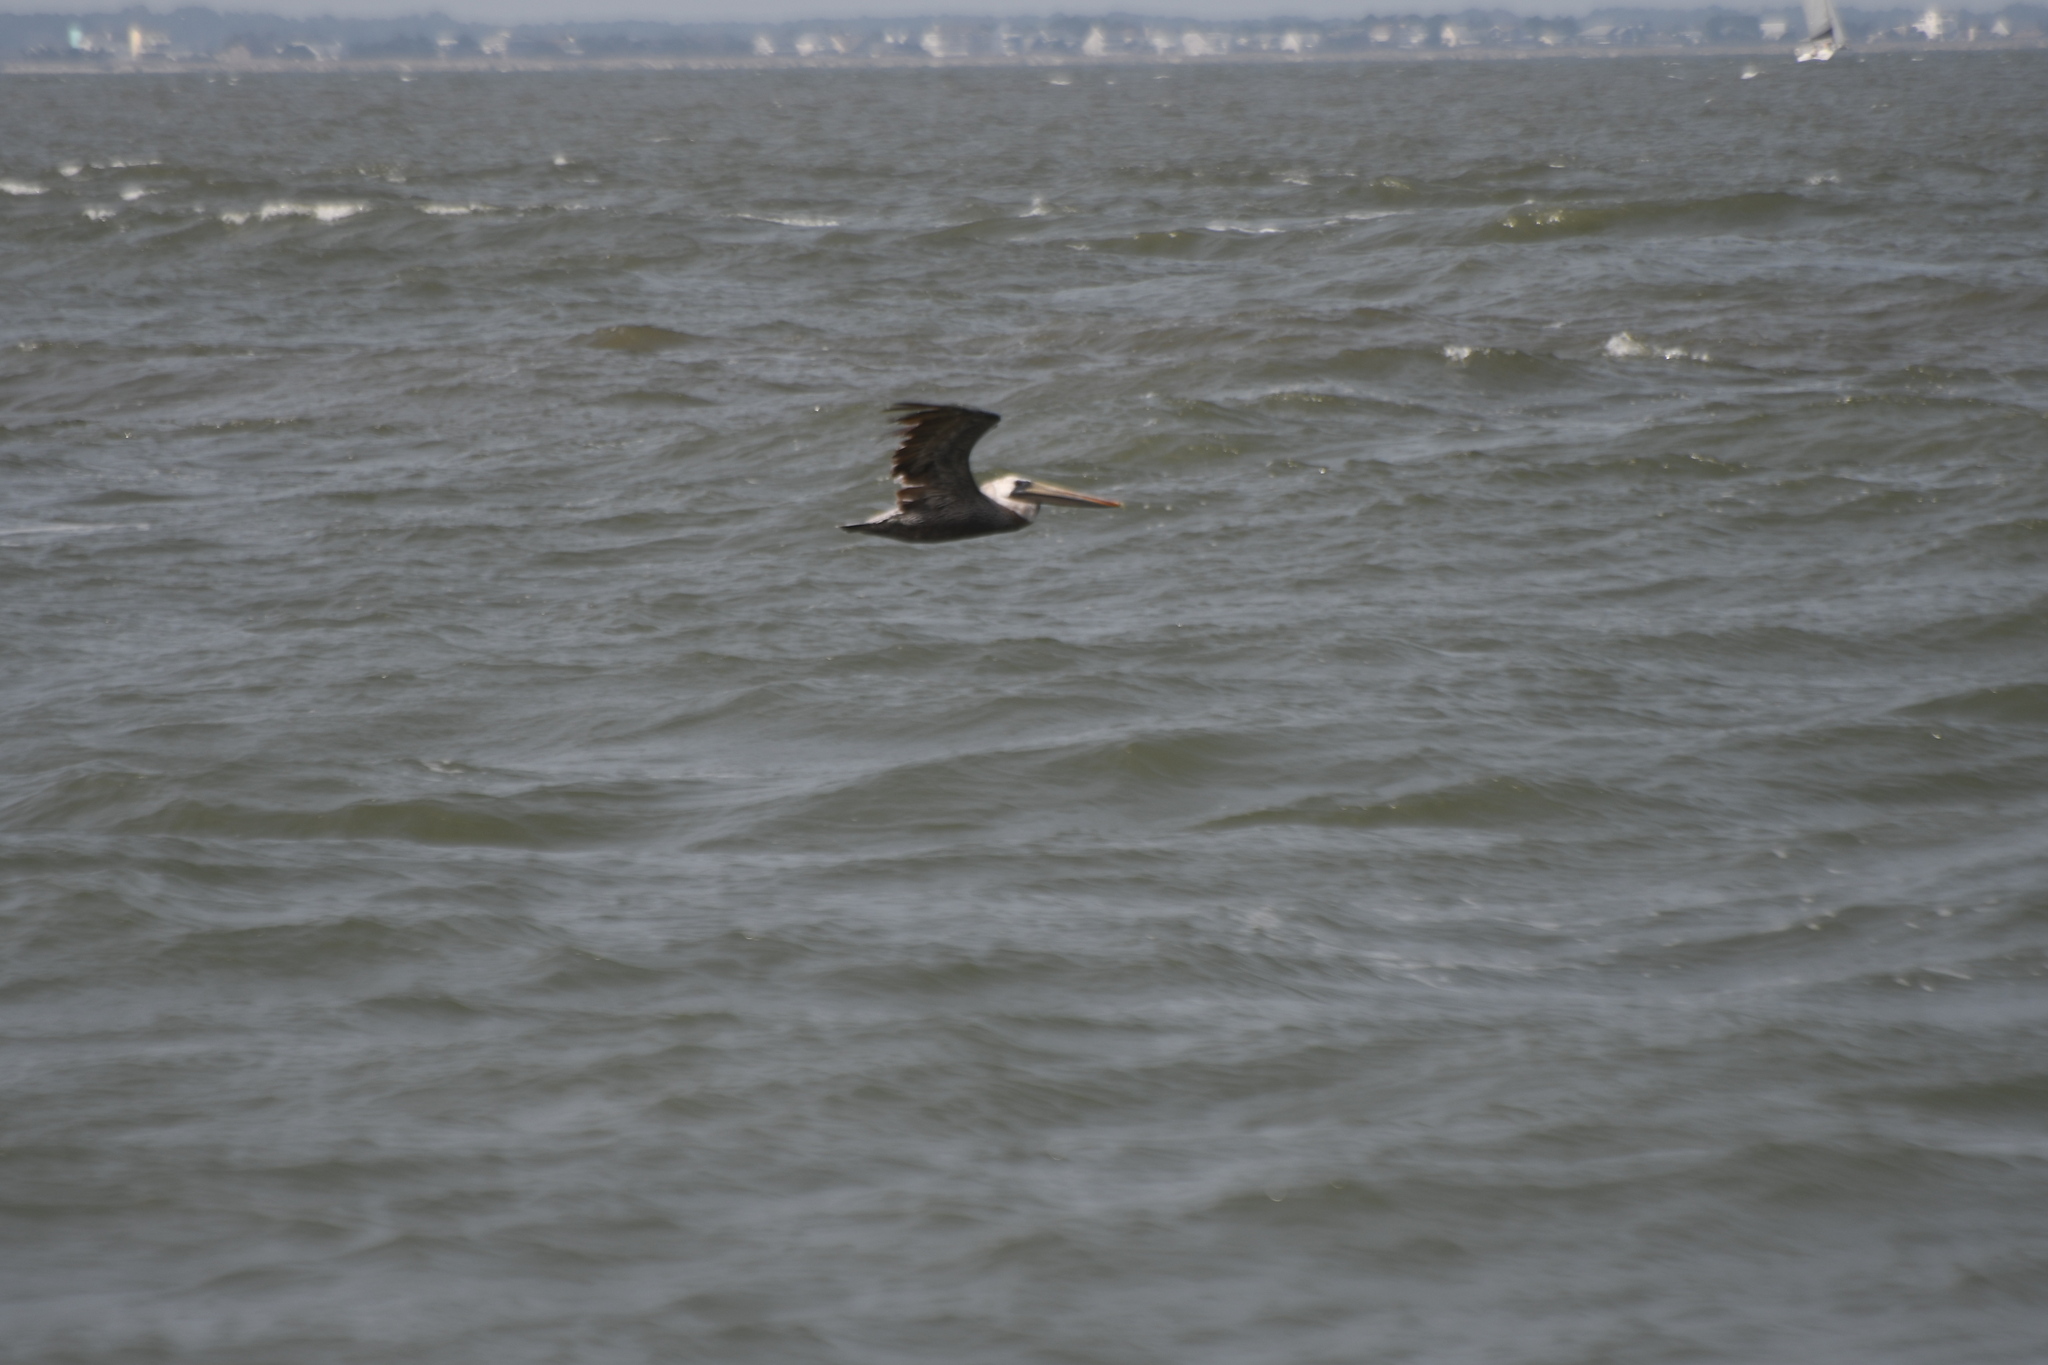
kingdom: Animalia
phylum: Chordata
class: Aves
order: Pelecaniformes
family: Pelecanidae
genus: Pelecanus
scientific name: Pelecanus occidentalis
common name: Brown pelican
